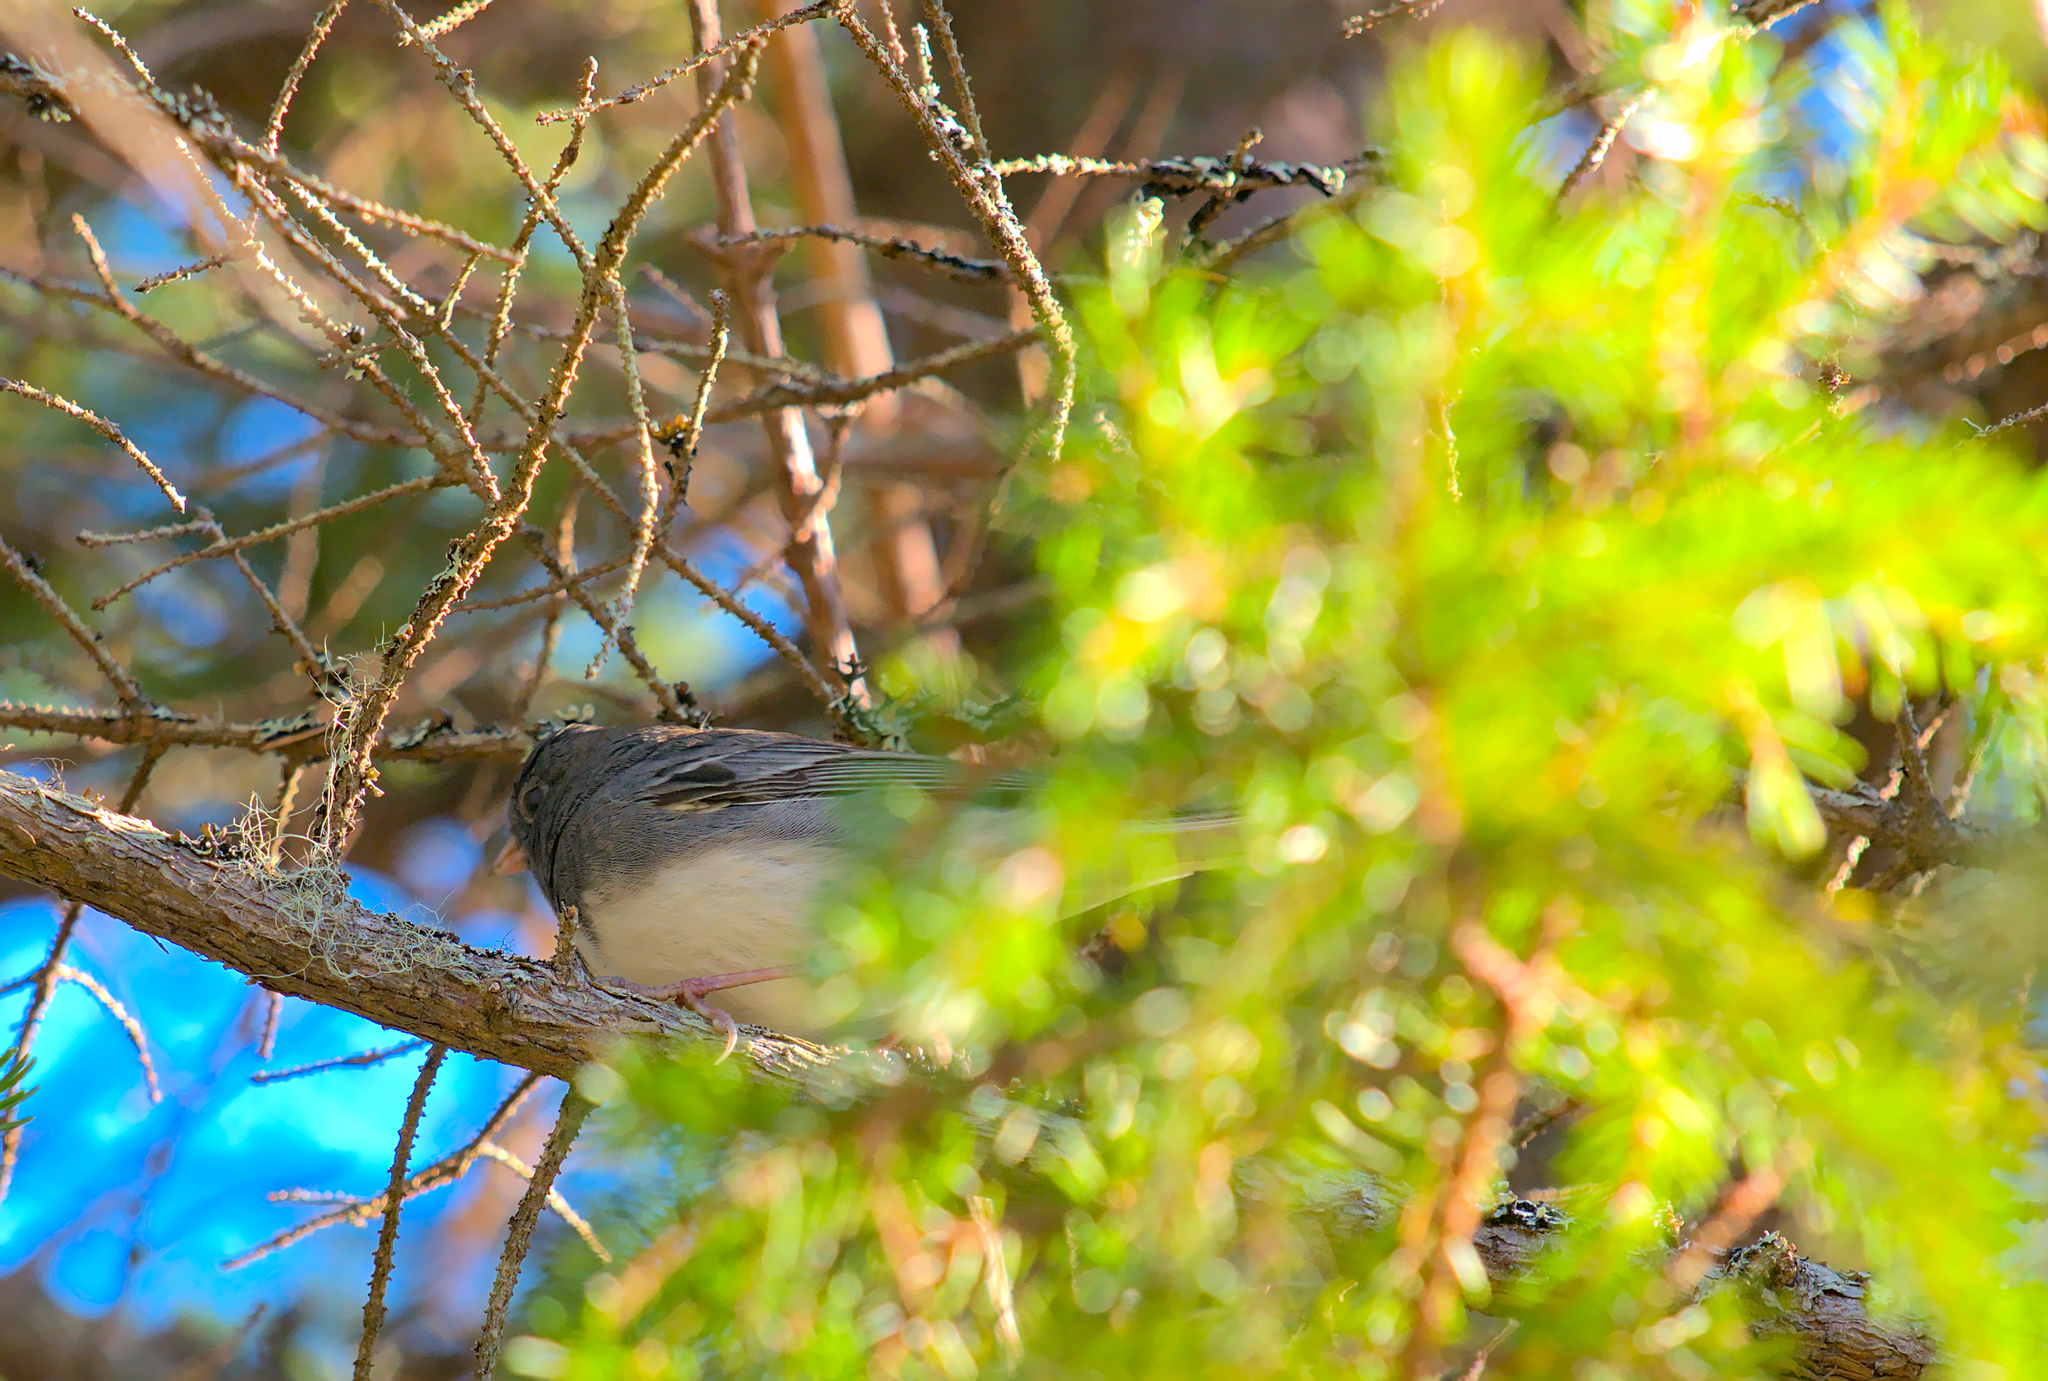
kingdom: Animalia
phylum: Chordata
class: Aves
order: Passeriformes
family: Passerellidae
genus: Junco
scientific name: Junco hyemalis
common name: Dark-eyed junco
